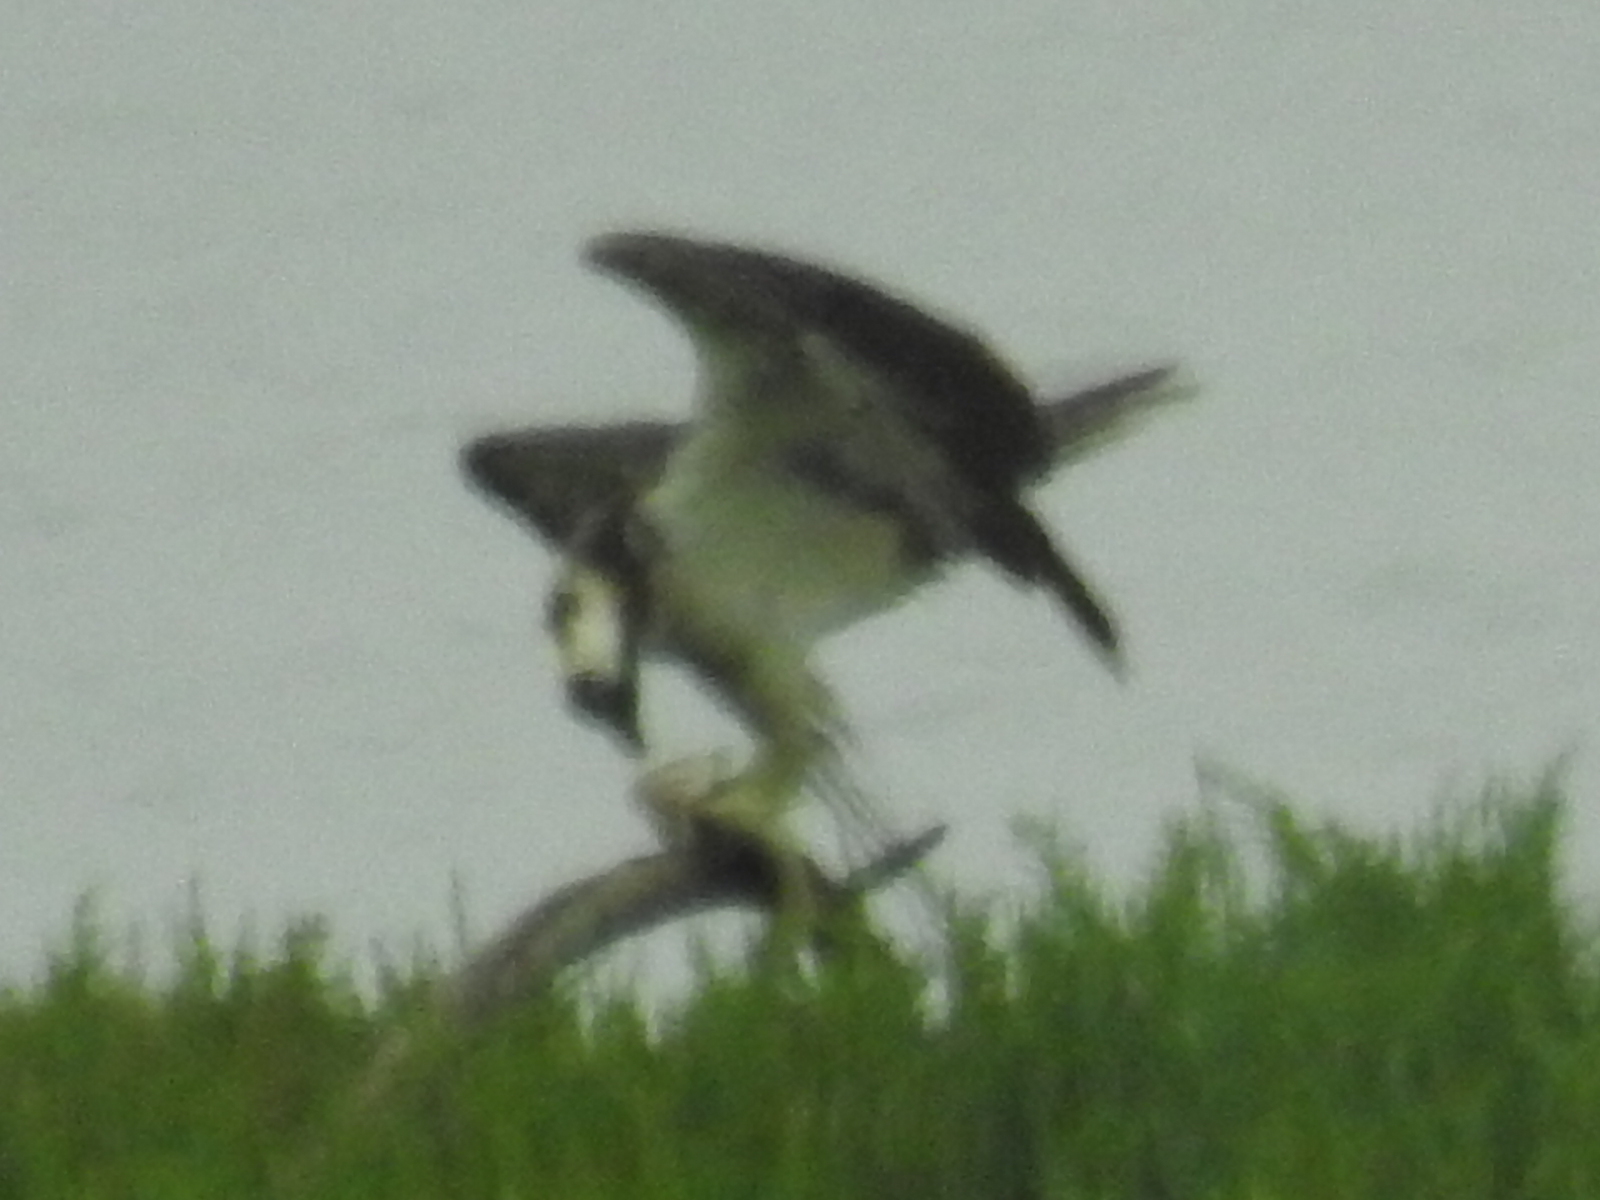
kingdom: Animalia
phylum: Chordata
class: Aves
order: Accipitriformes
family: Pandionidae
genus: Pandion
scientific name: Pandion haliaetus
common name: Osprey
